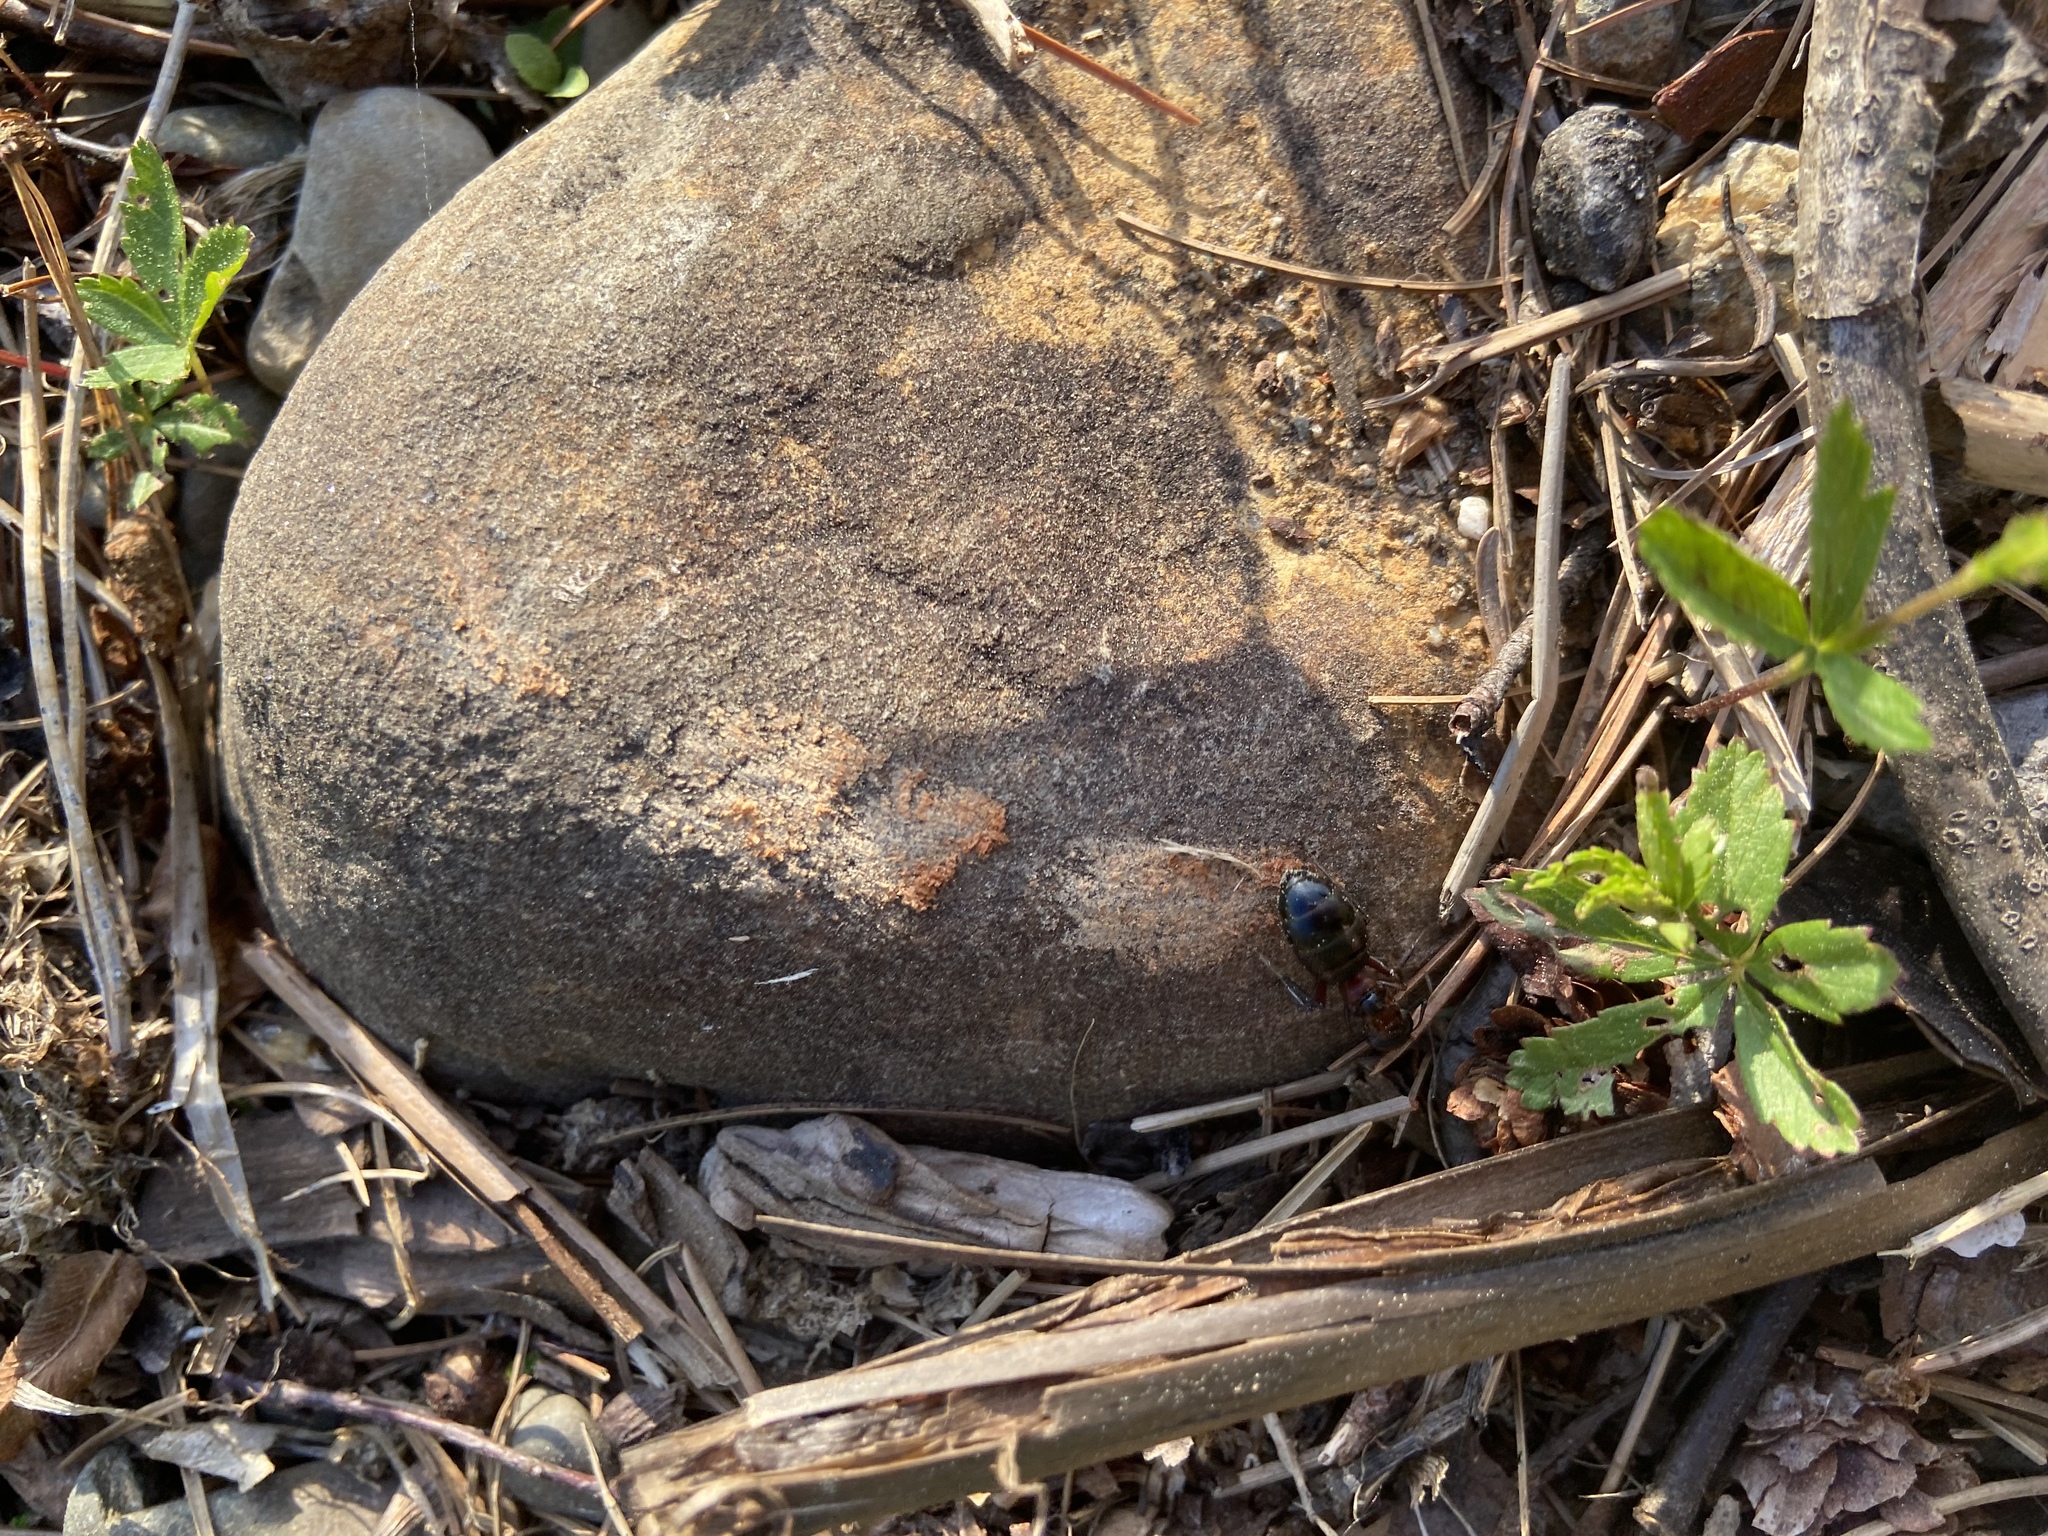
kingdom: Animalia
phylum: Arthropoda
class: Insecta
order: Hymenoptera
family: Formicidae
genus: Camponotus
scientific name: Camponotus novaeboracensis
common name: New york carpenter ant
